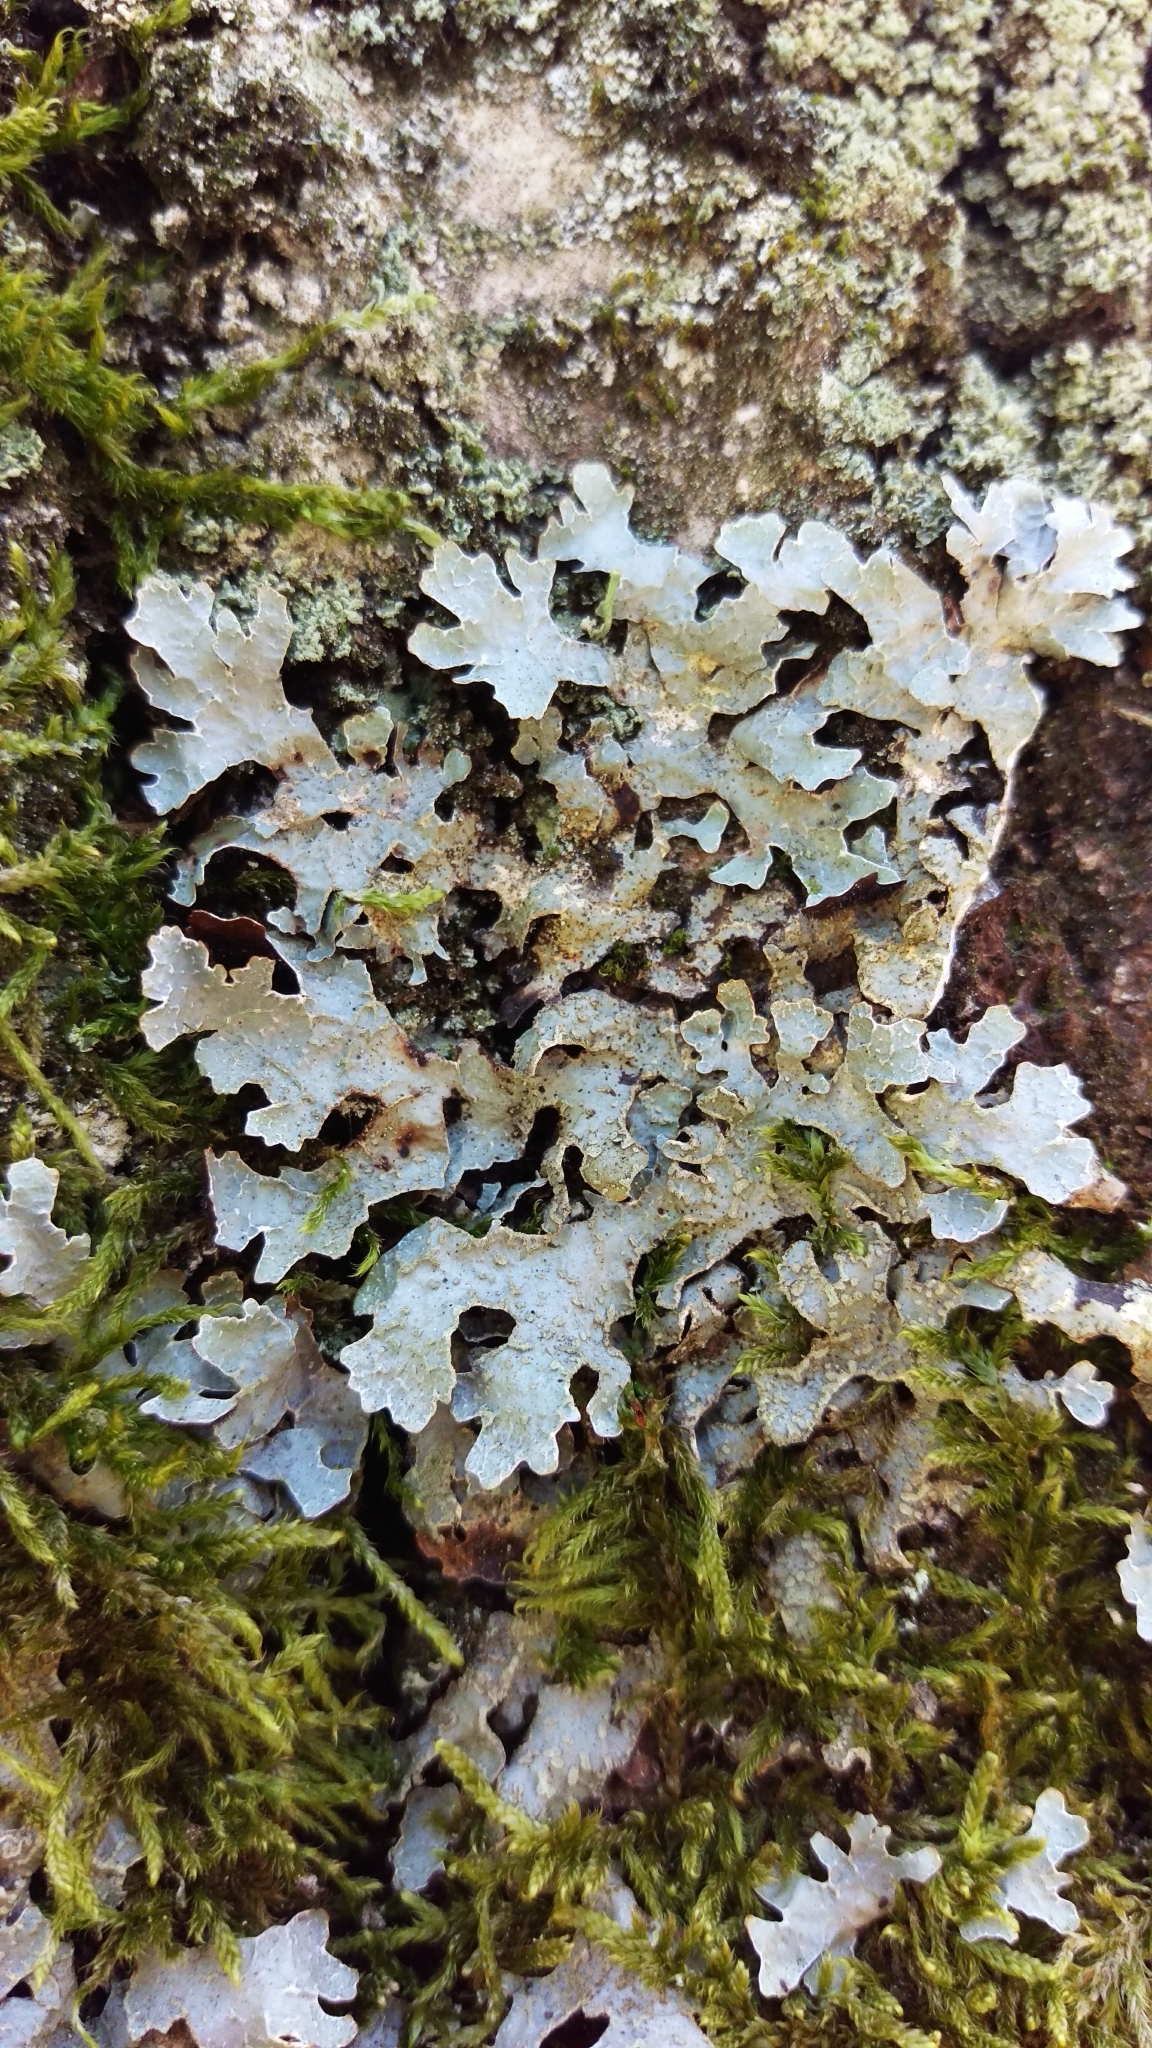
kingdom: Fungi
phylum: Ascomycota
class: Lecanoromycetes
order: Lecanorales
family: Parmeliaceae
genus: Parmelia
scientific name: Parmelia sulcata
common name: Netted shield lichen
